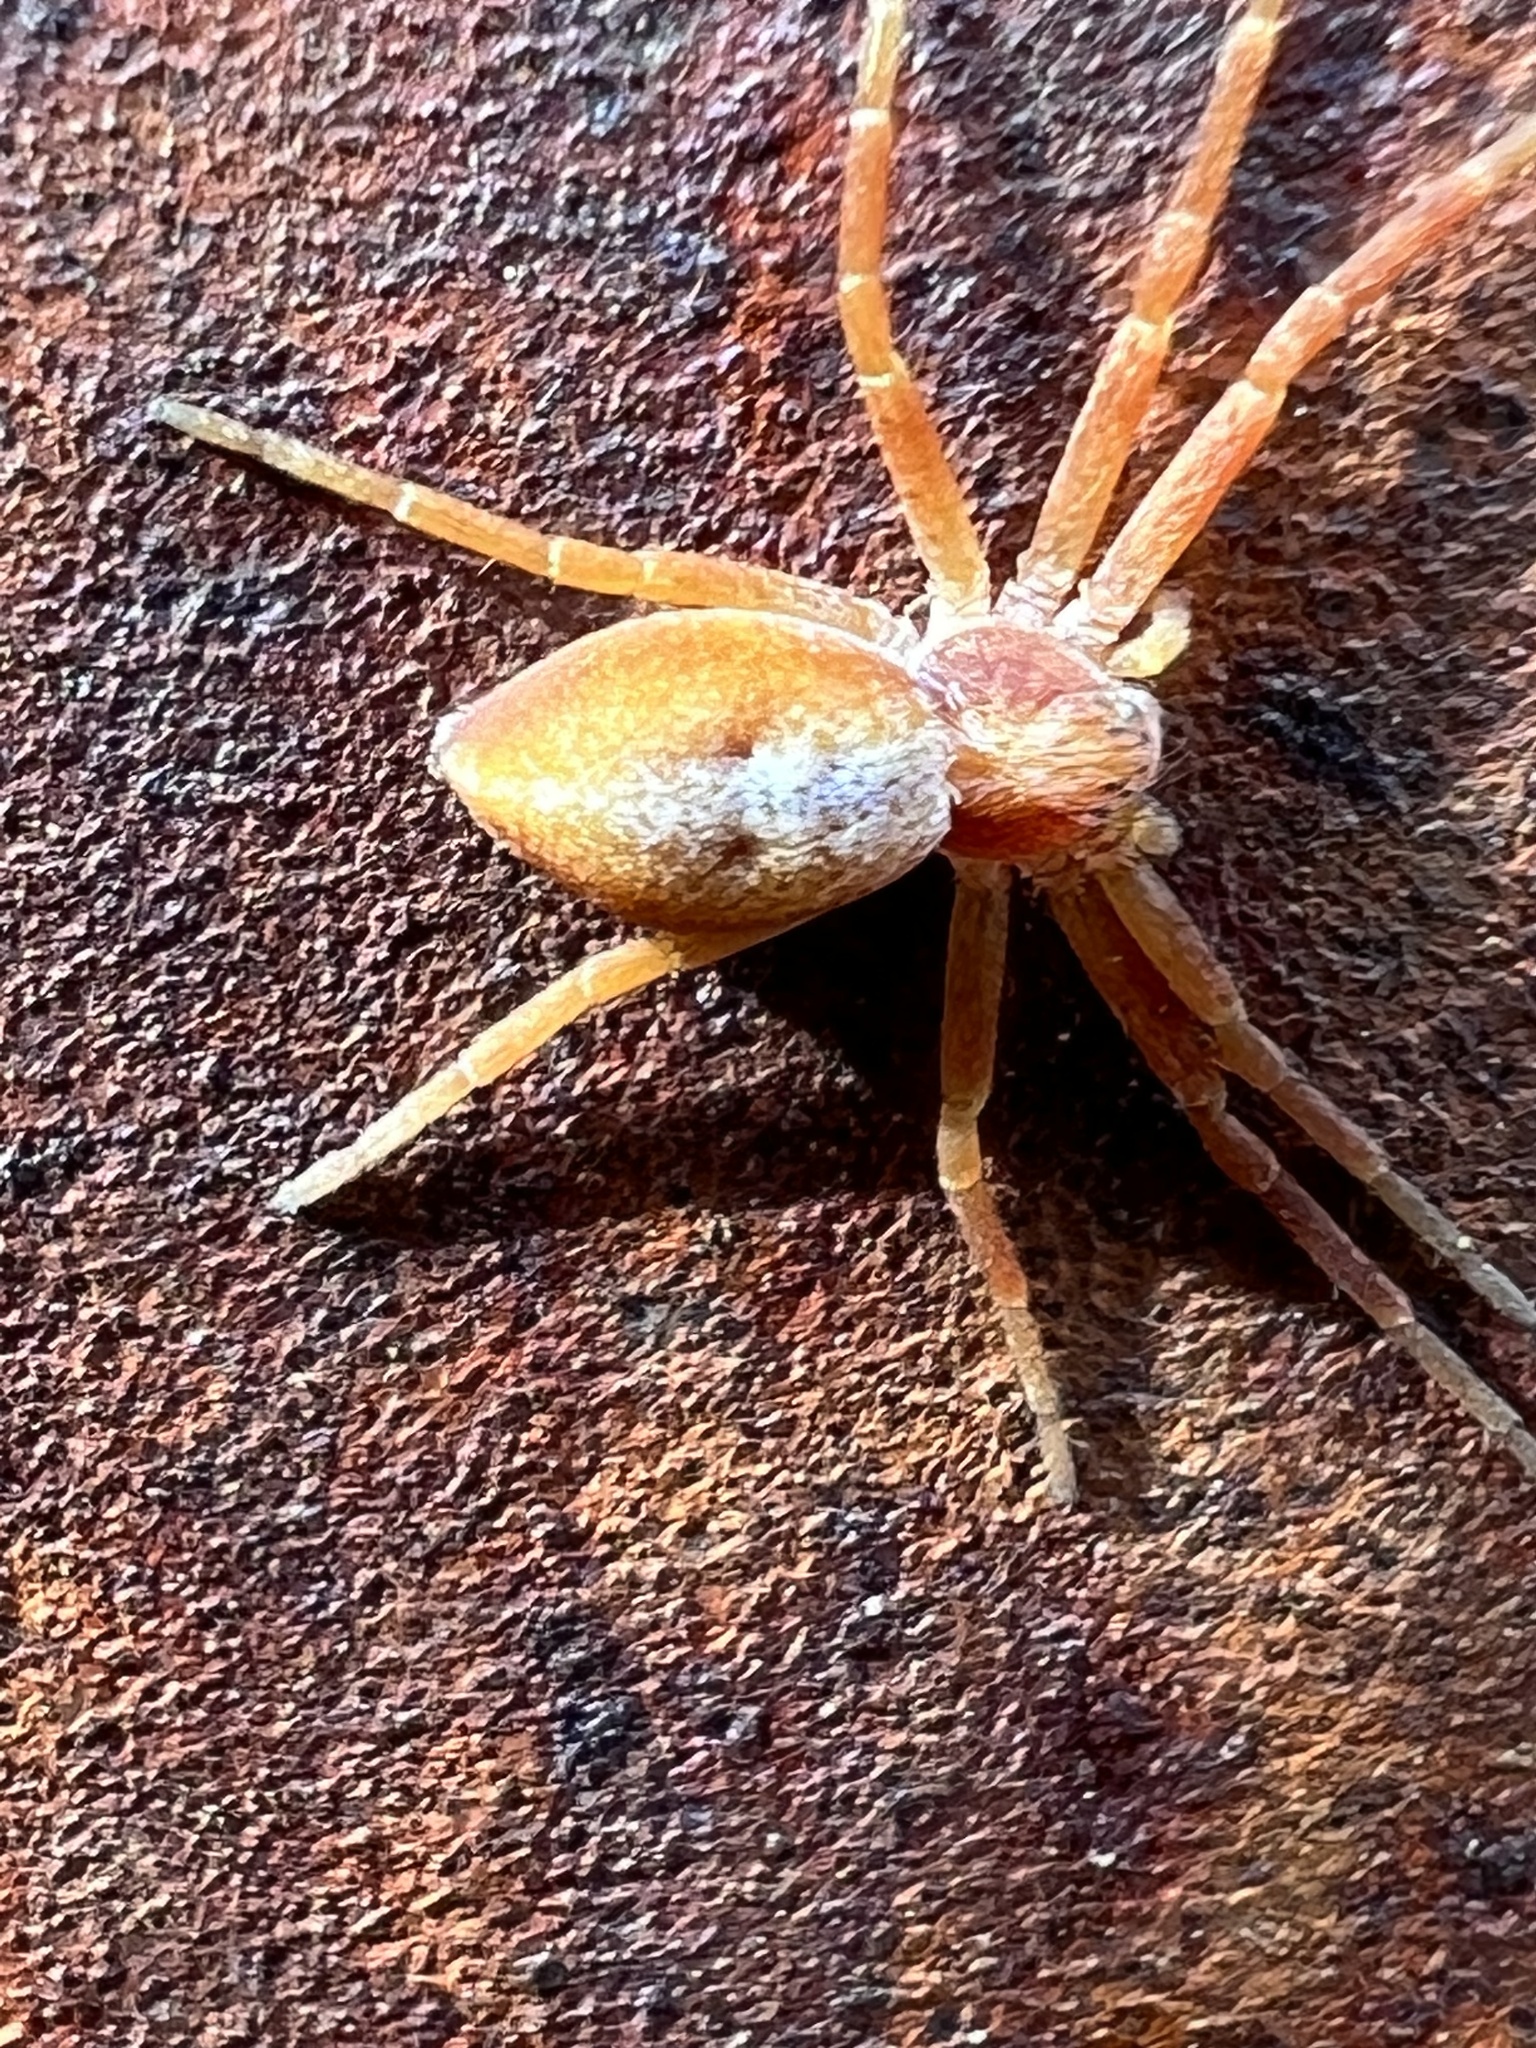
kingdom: Animalia
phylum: Arthropoda
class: Arachnida
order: Araneae
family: Philodromidae
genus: Philodromus
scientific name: Philodromus rufus
